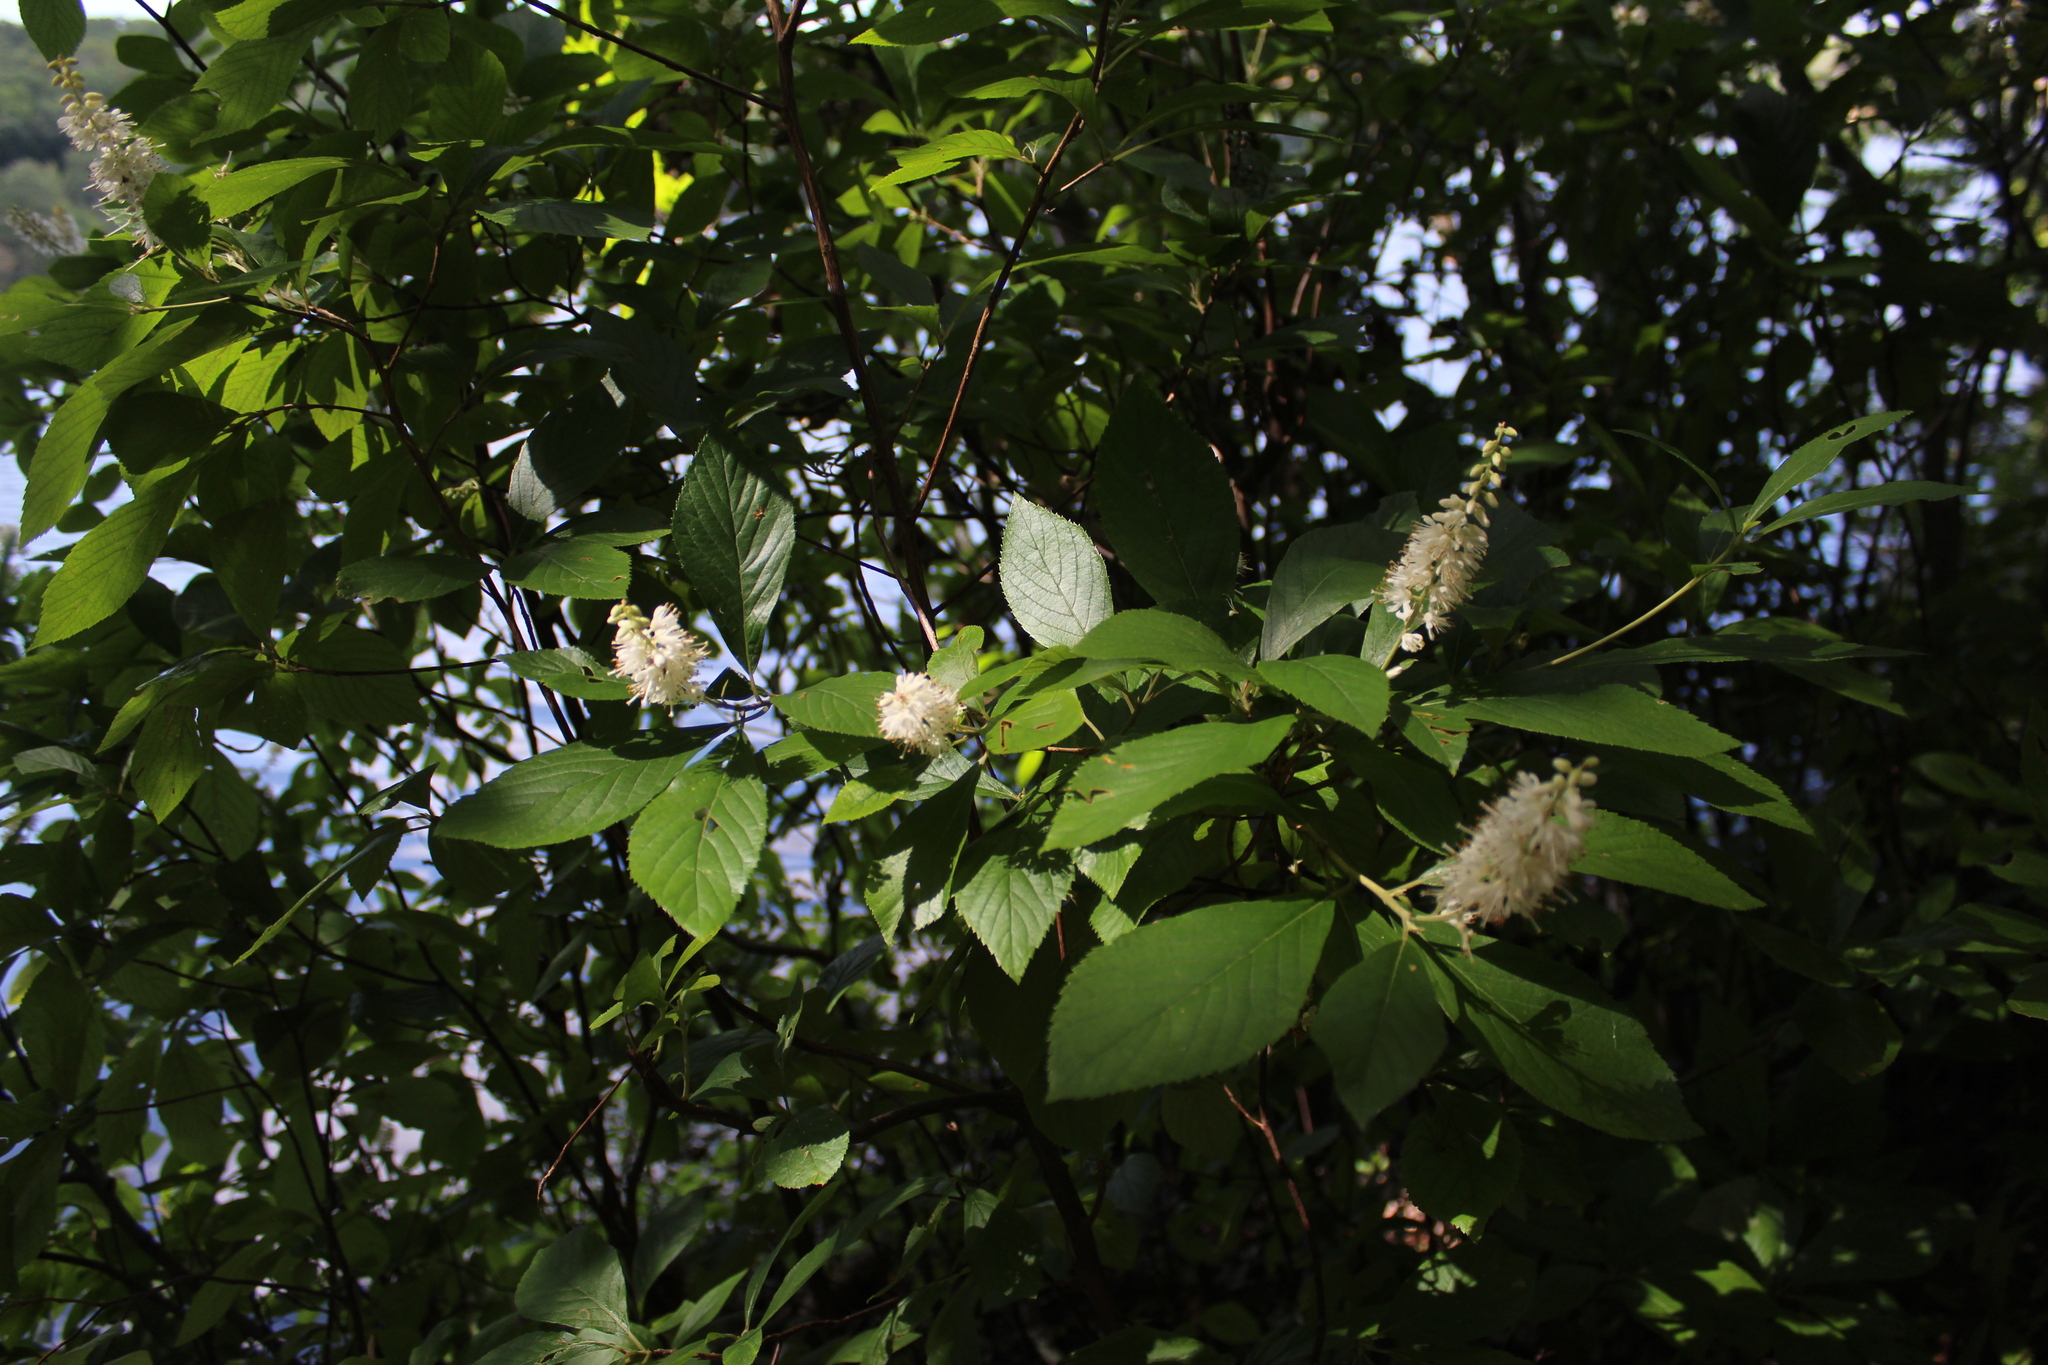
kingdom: Plantae
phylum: Tracheophyta
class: Magnoliopsida
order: Ericales
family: Clethraceae
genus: Clethra
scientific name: Clethra alnifolia
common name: Sweet pepperbush
